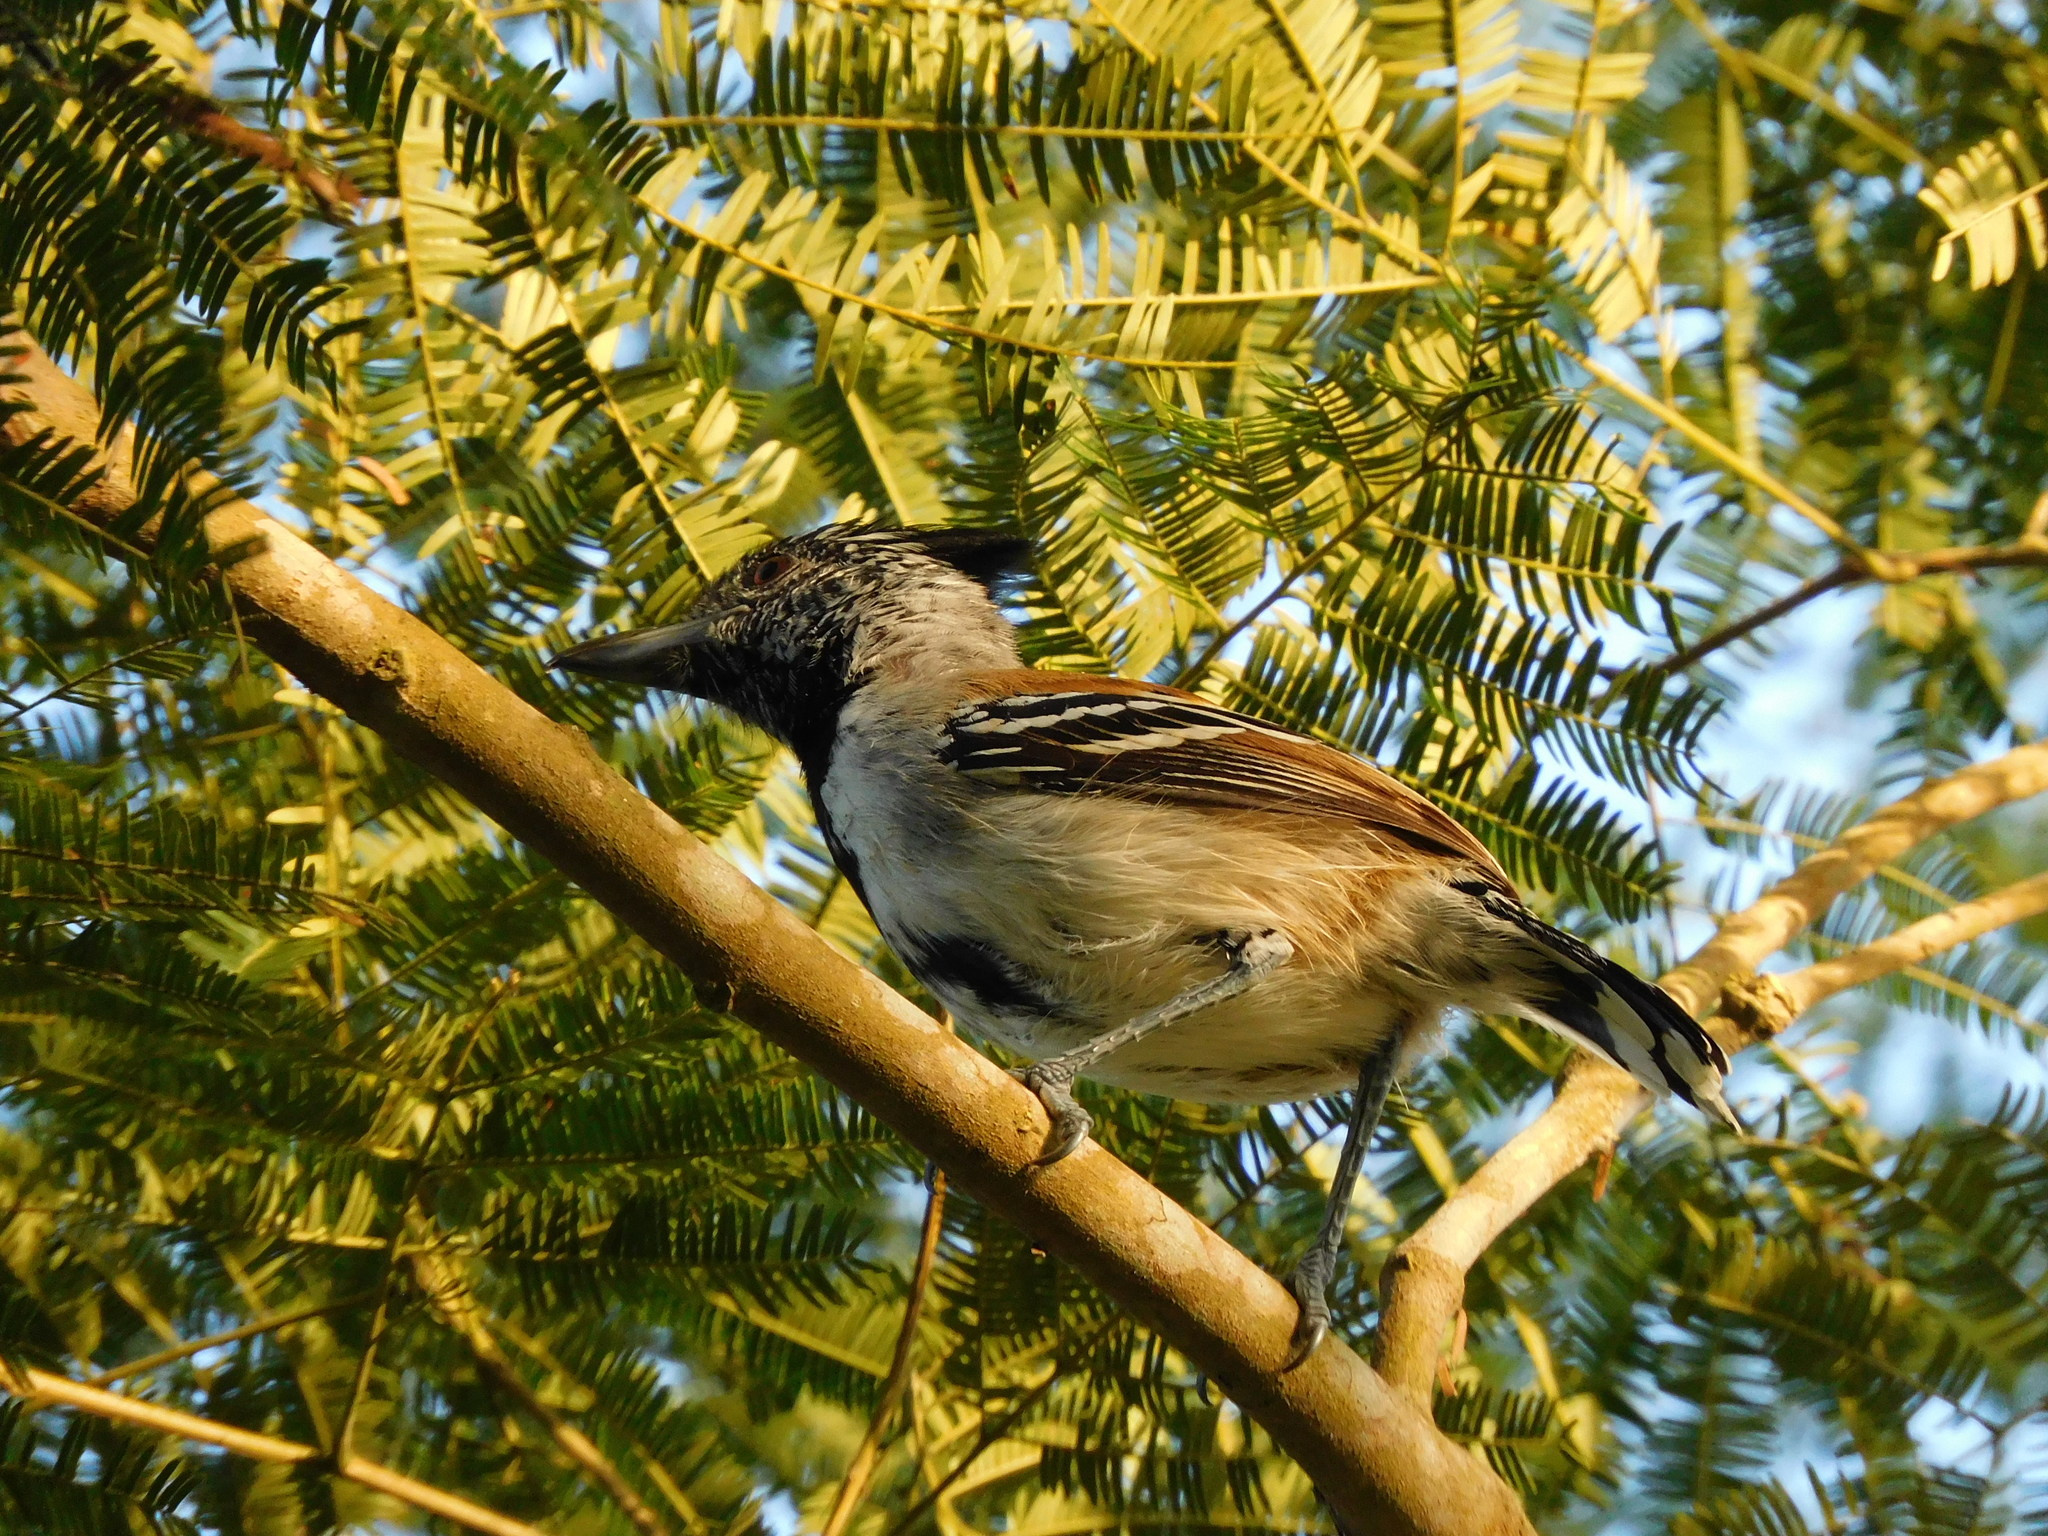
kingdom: Animalia
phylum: Chordata
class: Aves
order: Passeriformes
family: Thamnophilidae
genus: Sakesphorus
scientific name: Sakesphorus canadensis
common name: Black-crested antshrike
